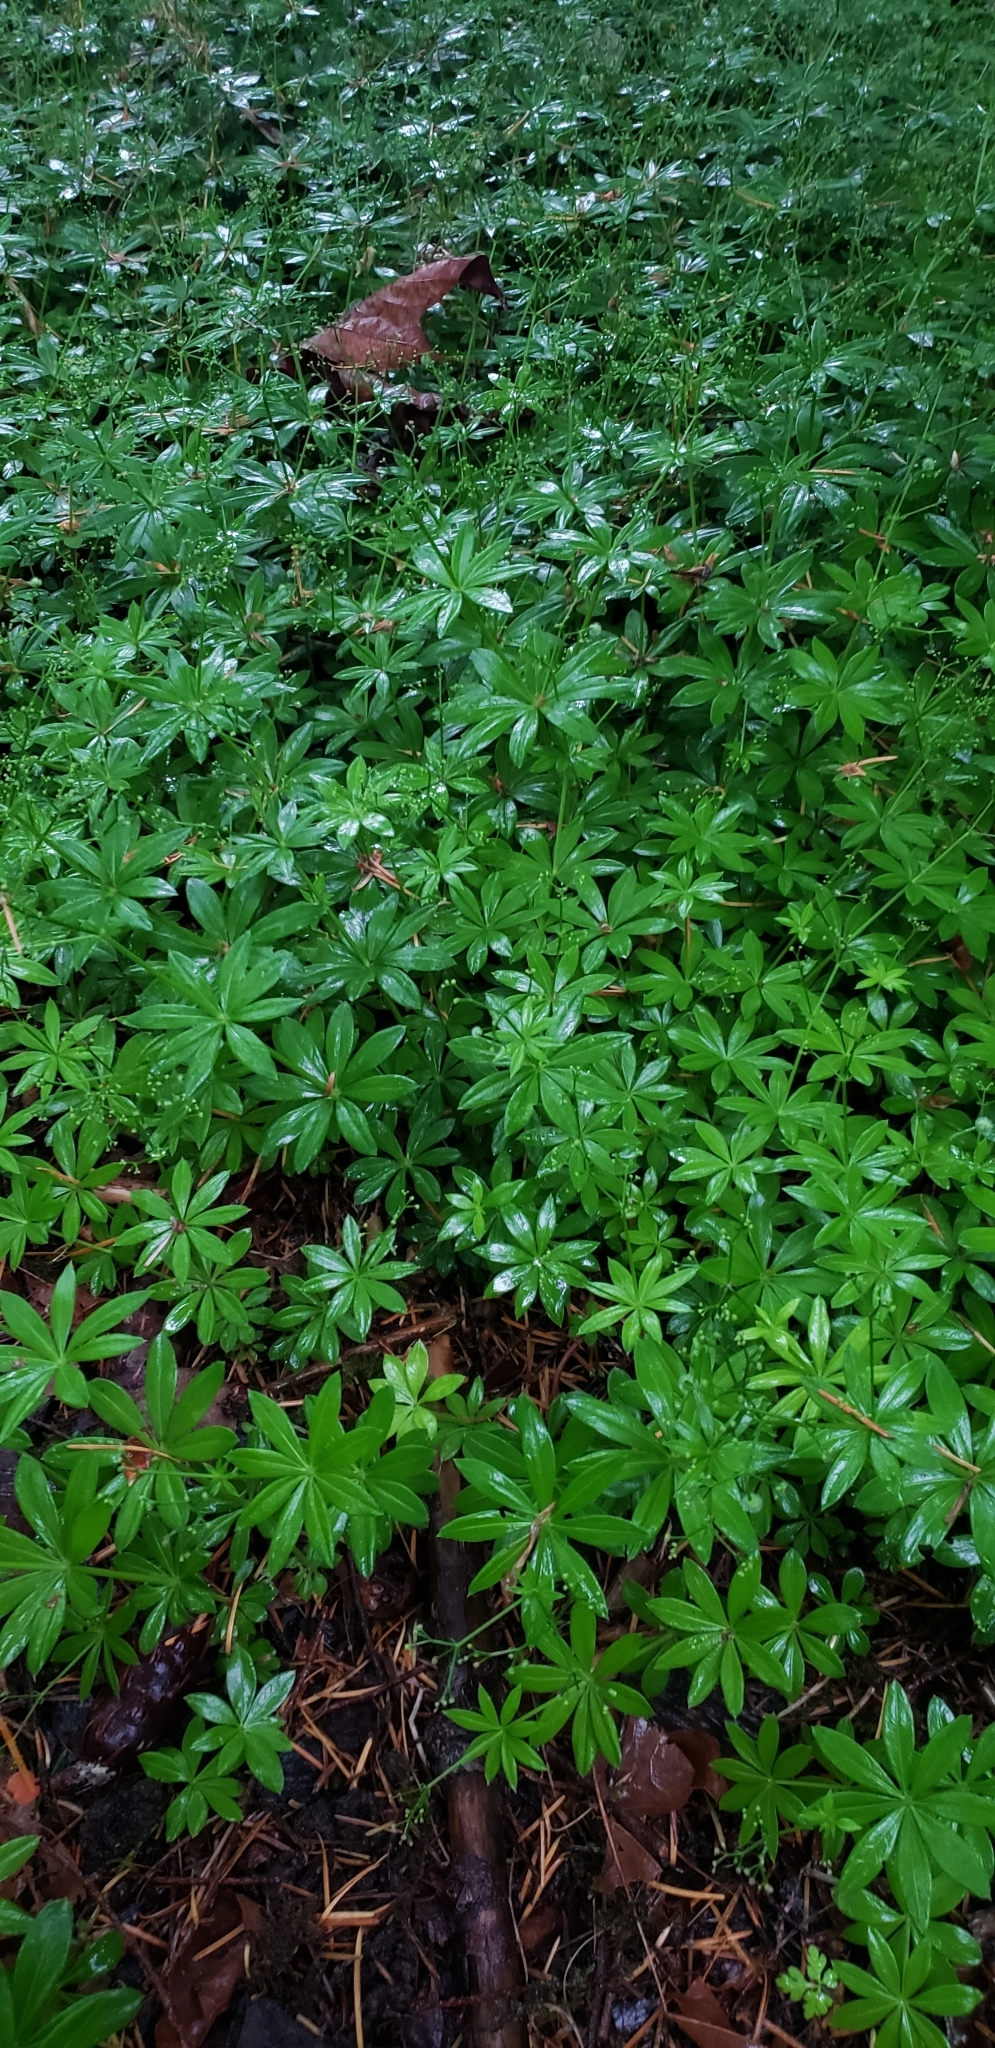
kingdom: Plantae
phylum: Tracheophyta
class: Magnoliopsida
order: Gentianales
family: Rubiaceae
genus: Galium
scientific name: Galium odoratum
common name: Sweet woodruff
